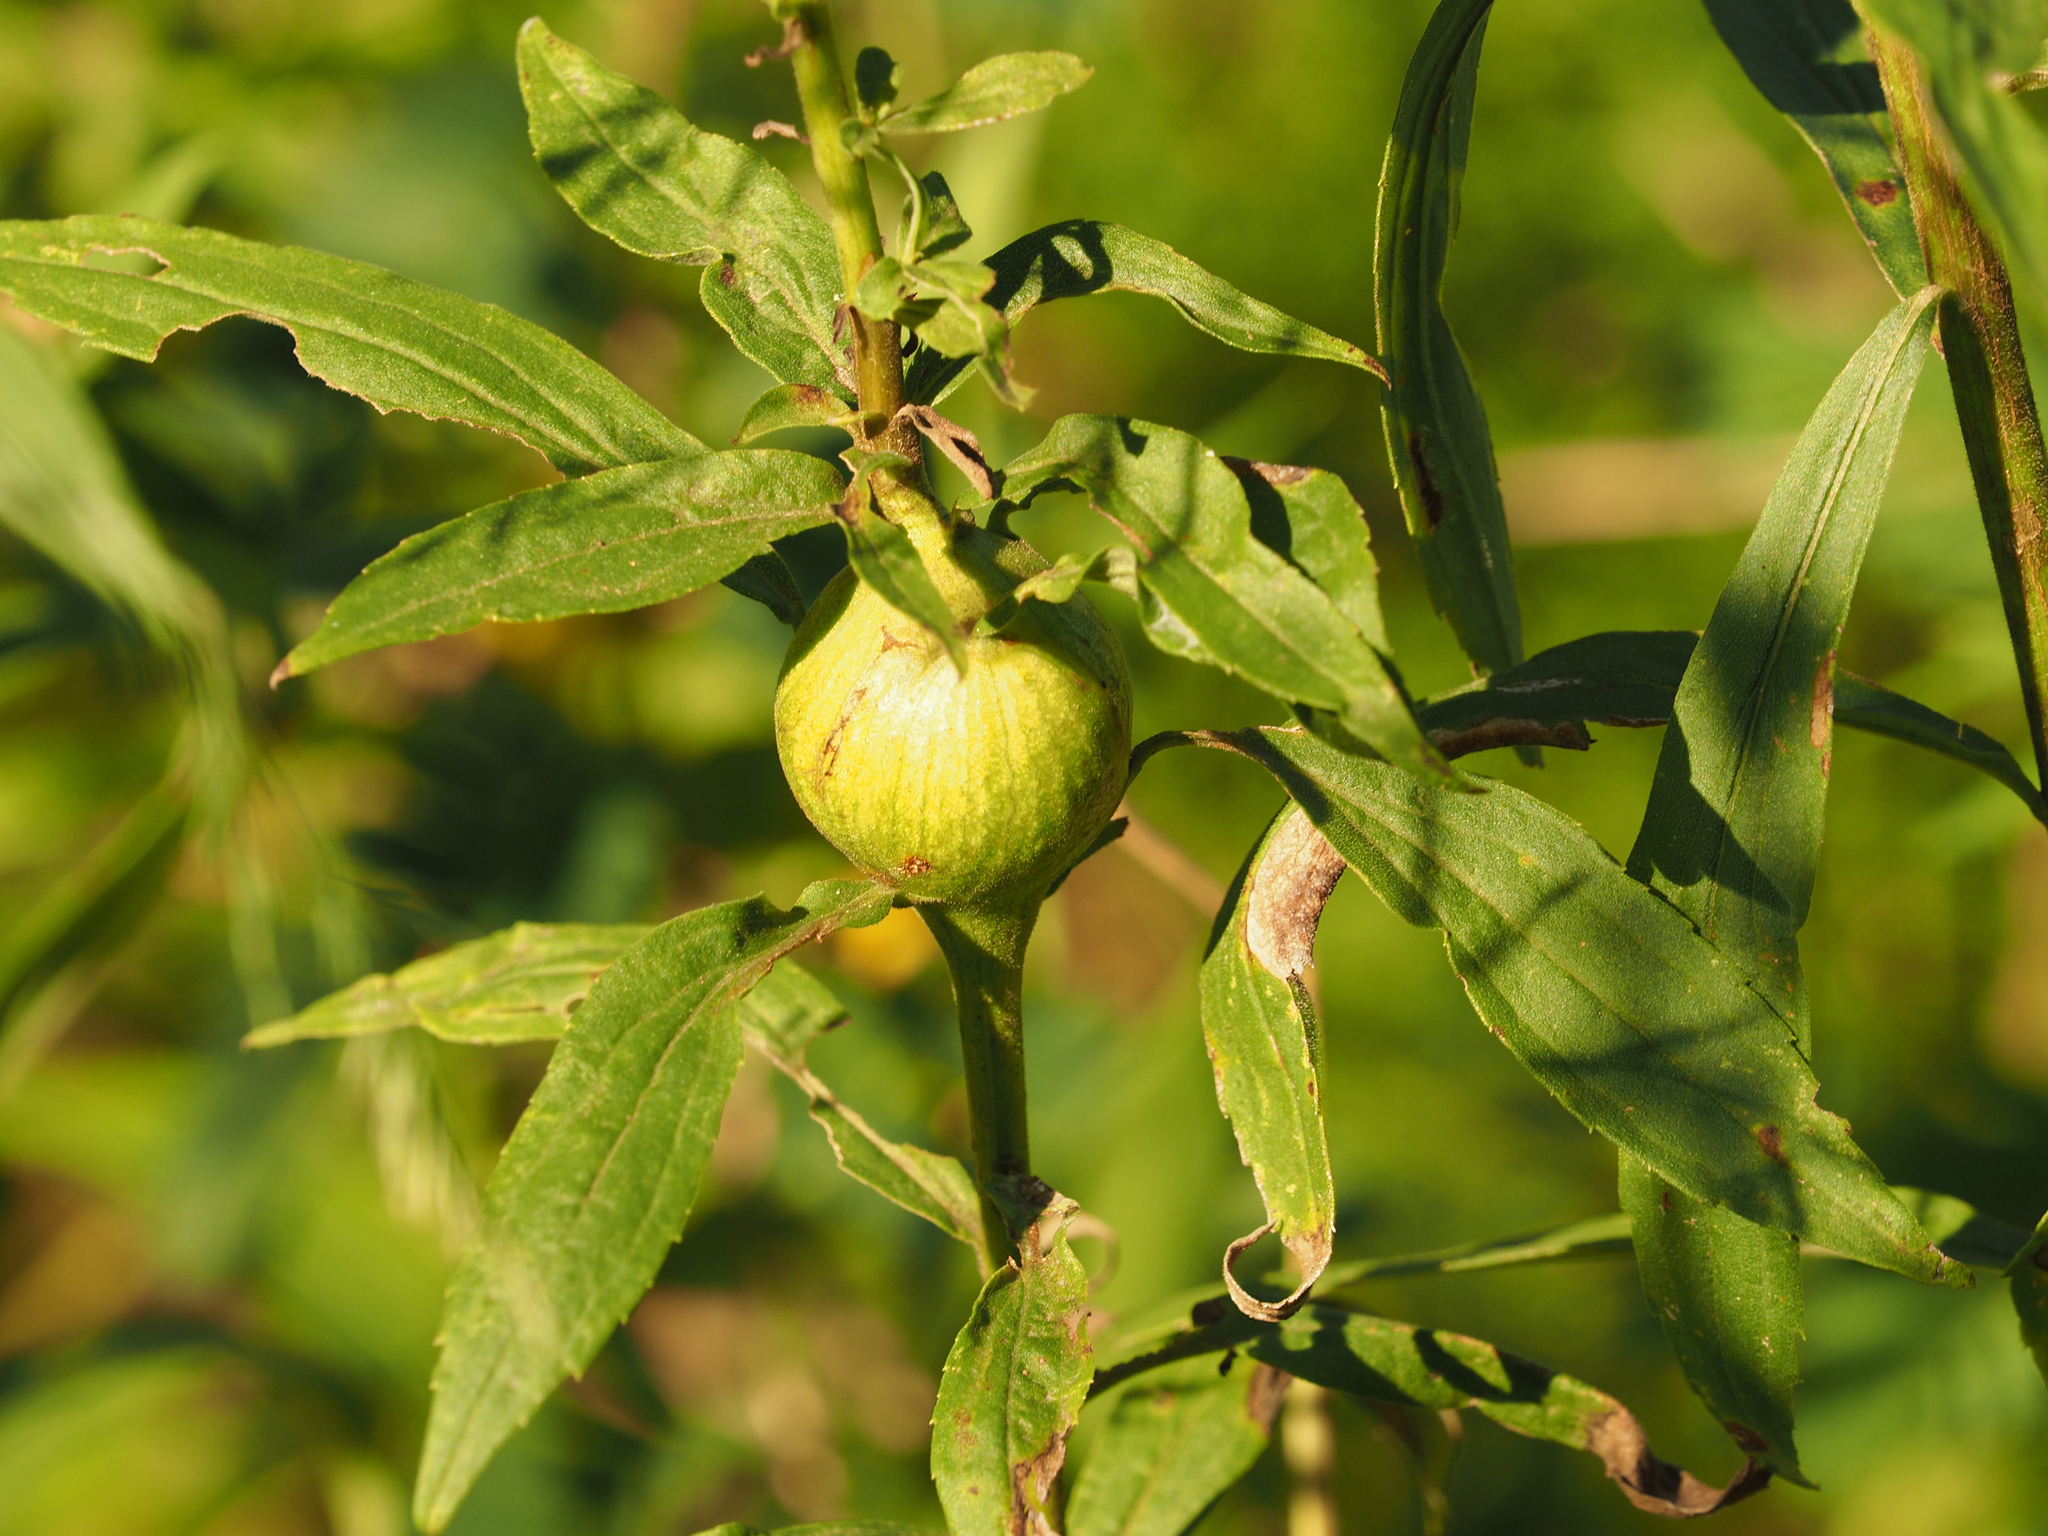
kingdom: Animalia
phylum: Arthropoda
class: Insecta
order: Diptera
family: Tephritidae
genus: Eurosta
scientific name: Eurosta solidaginis
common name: Goldenrod gall fly
